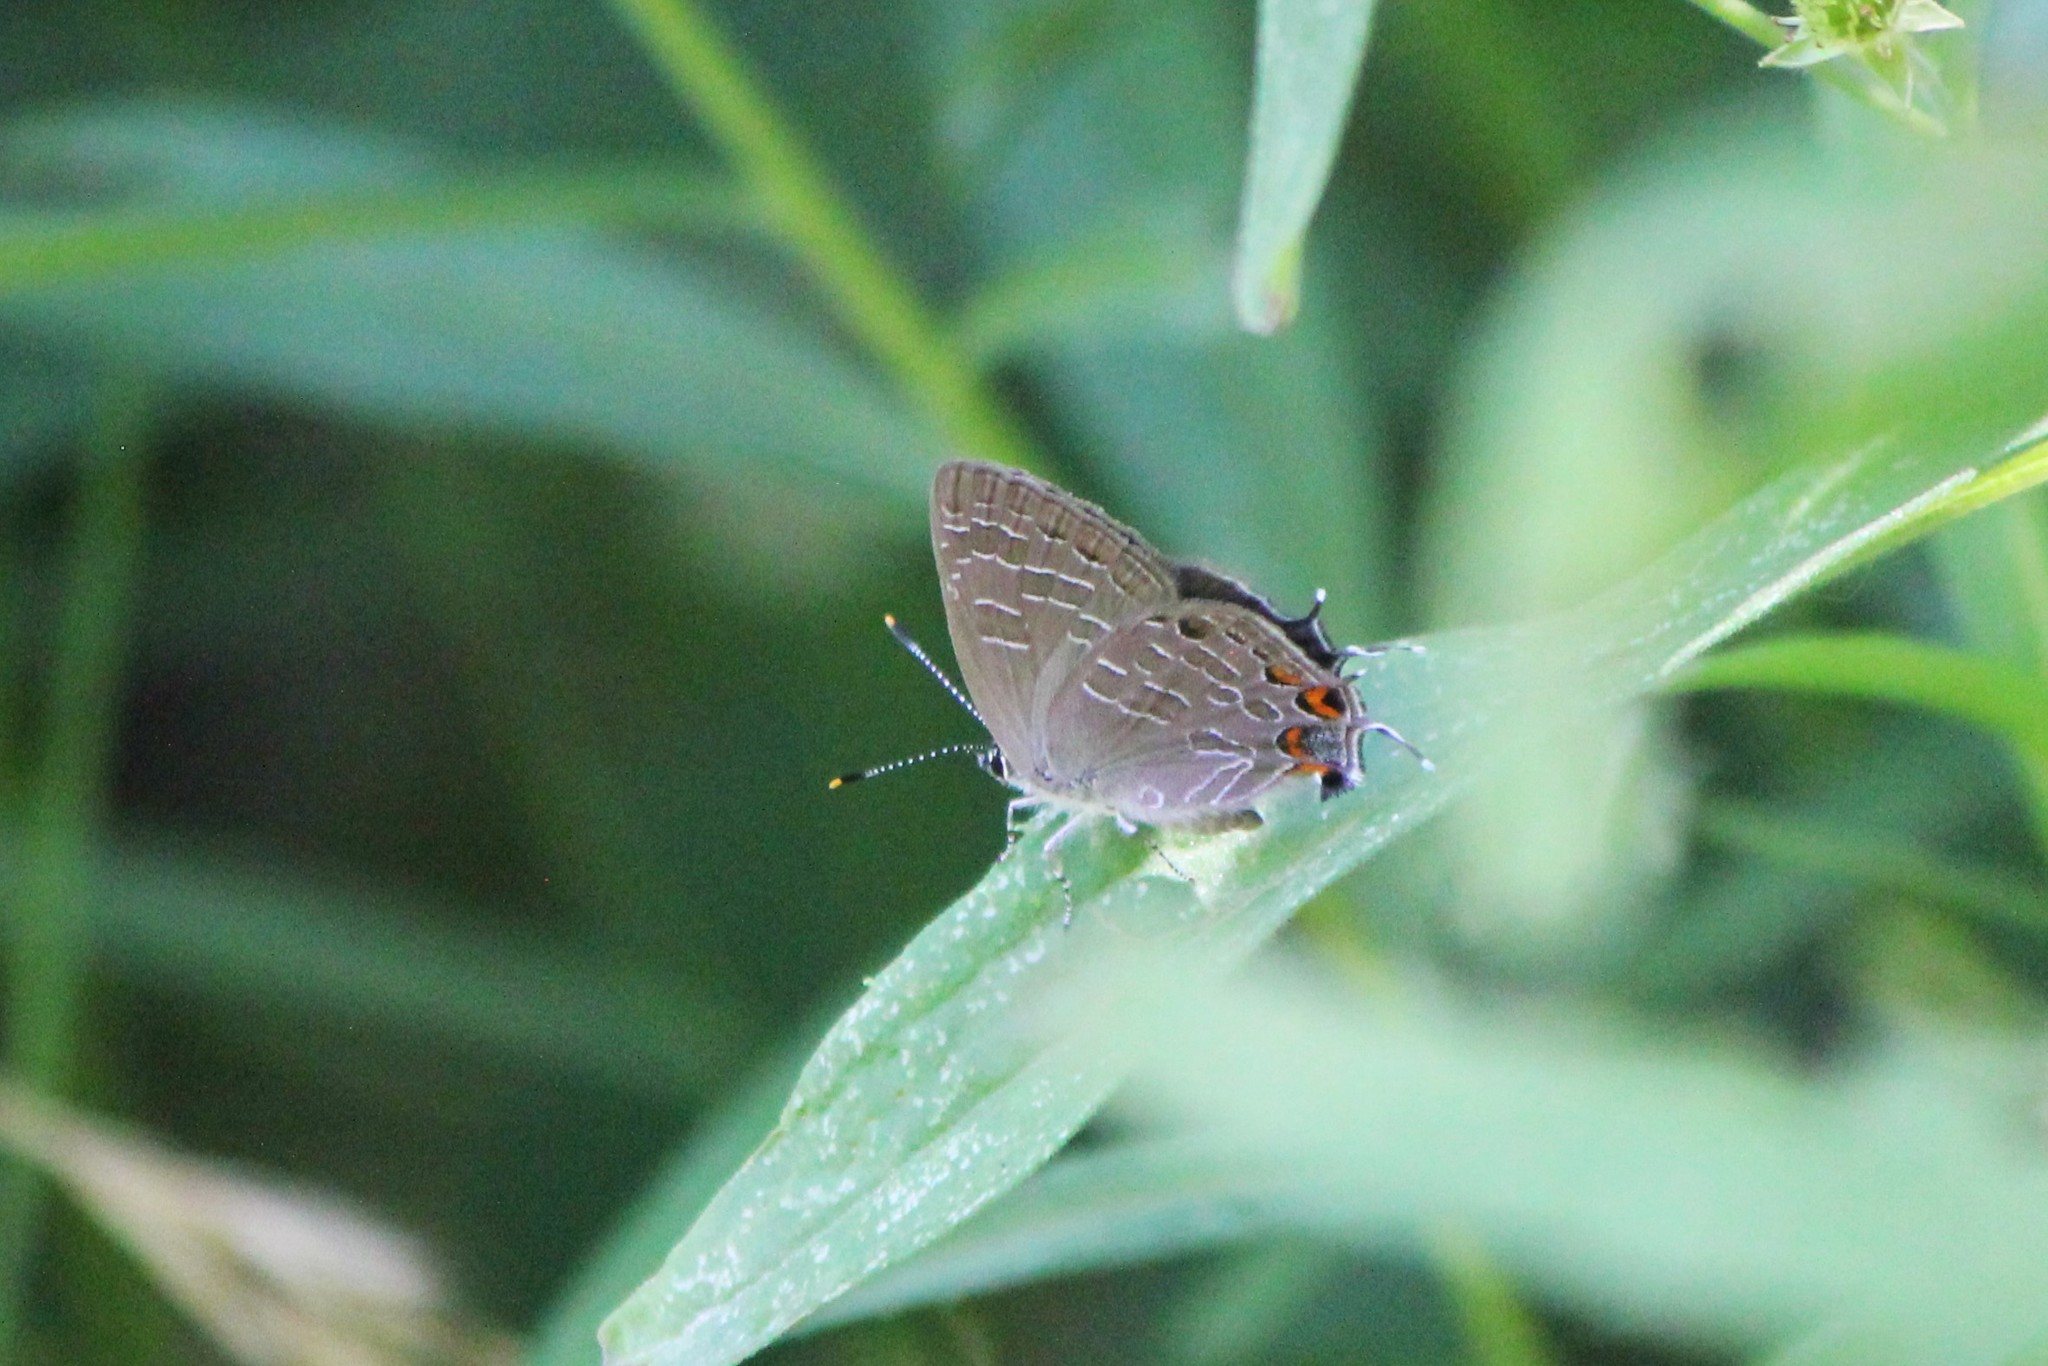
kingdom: Animalia
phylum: Arthropoda
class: Insecta
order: Lepidoptera
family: Lycaenidae
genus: Satyrium
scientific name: Satyrium liparops
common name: Striped hairstreak
